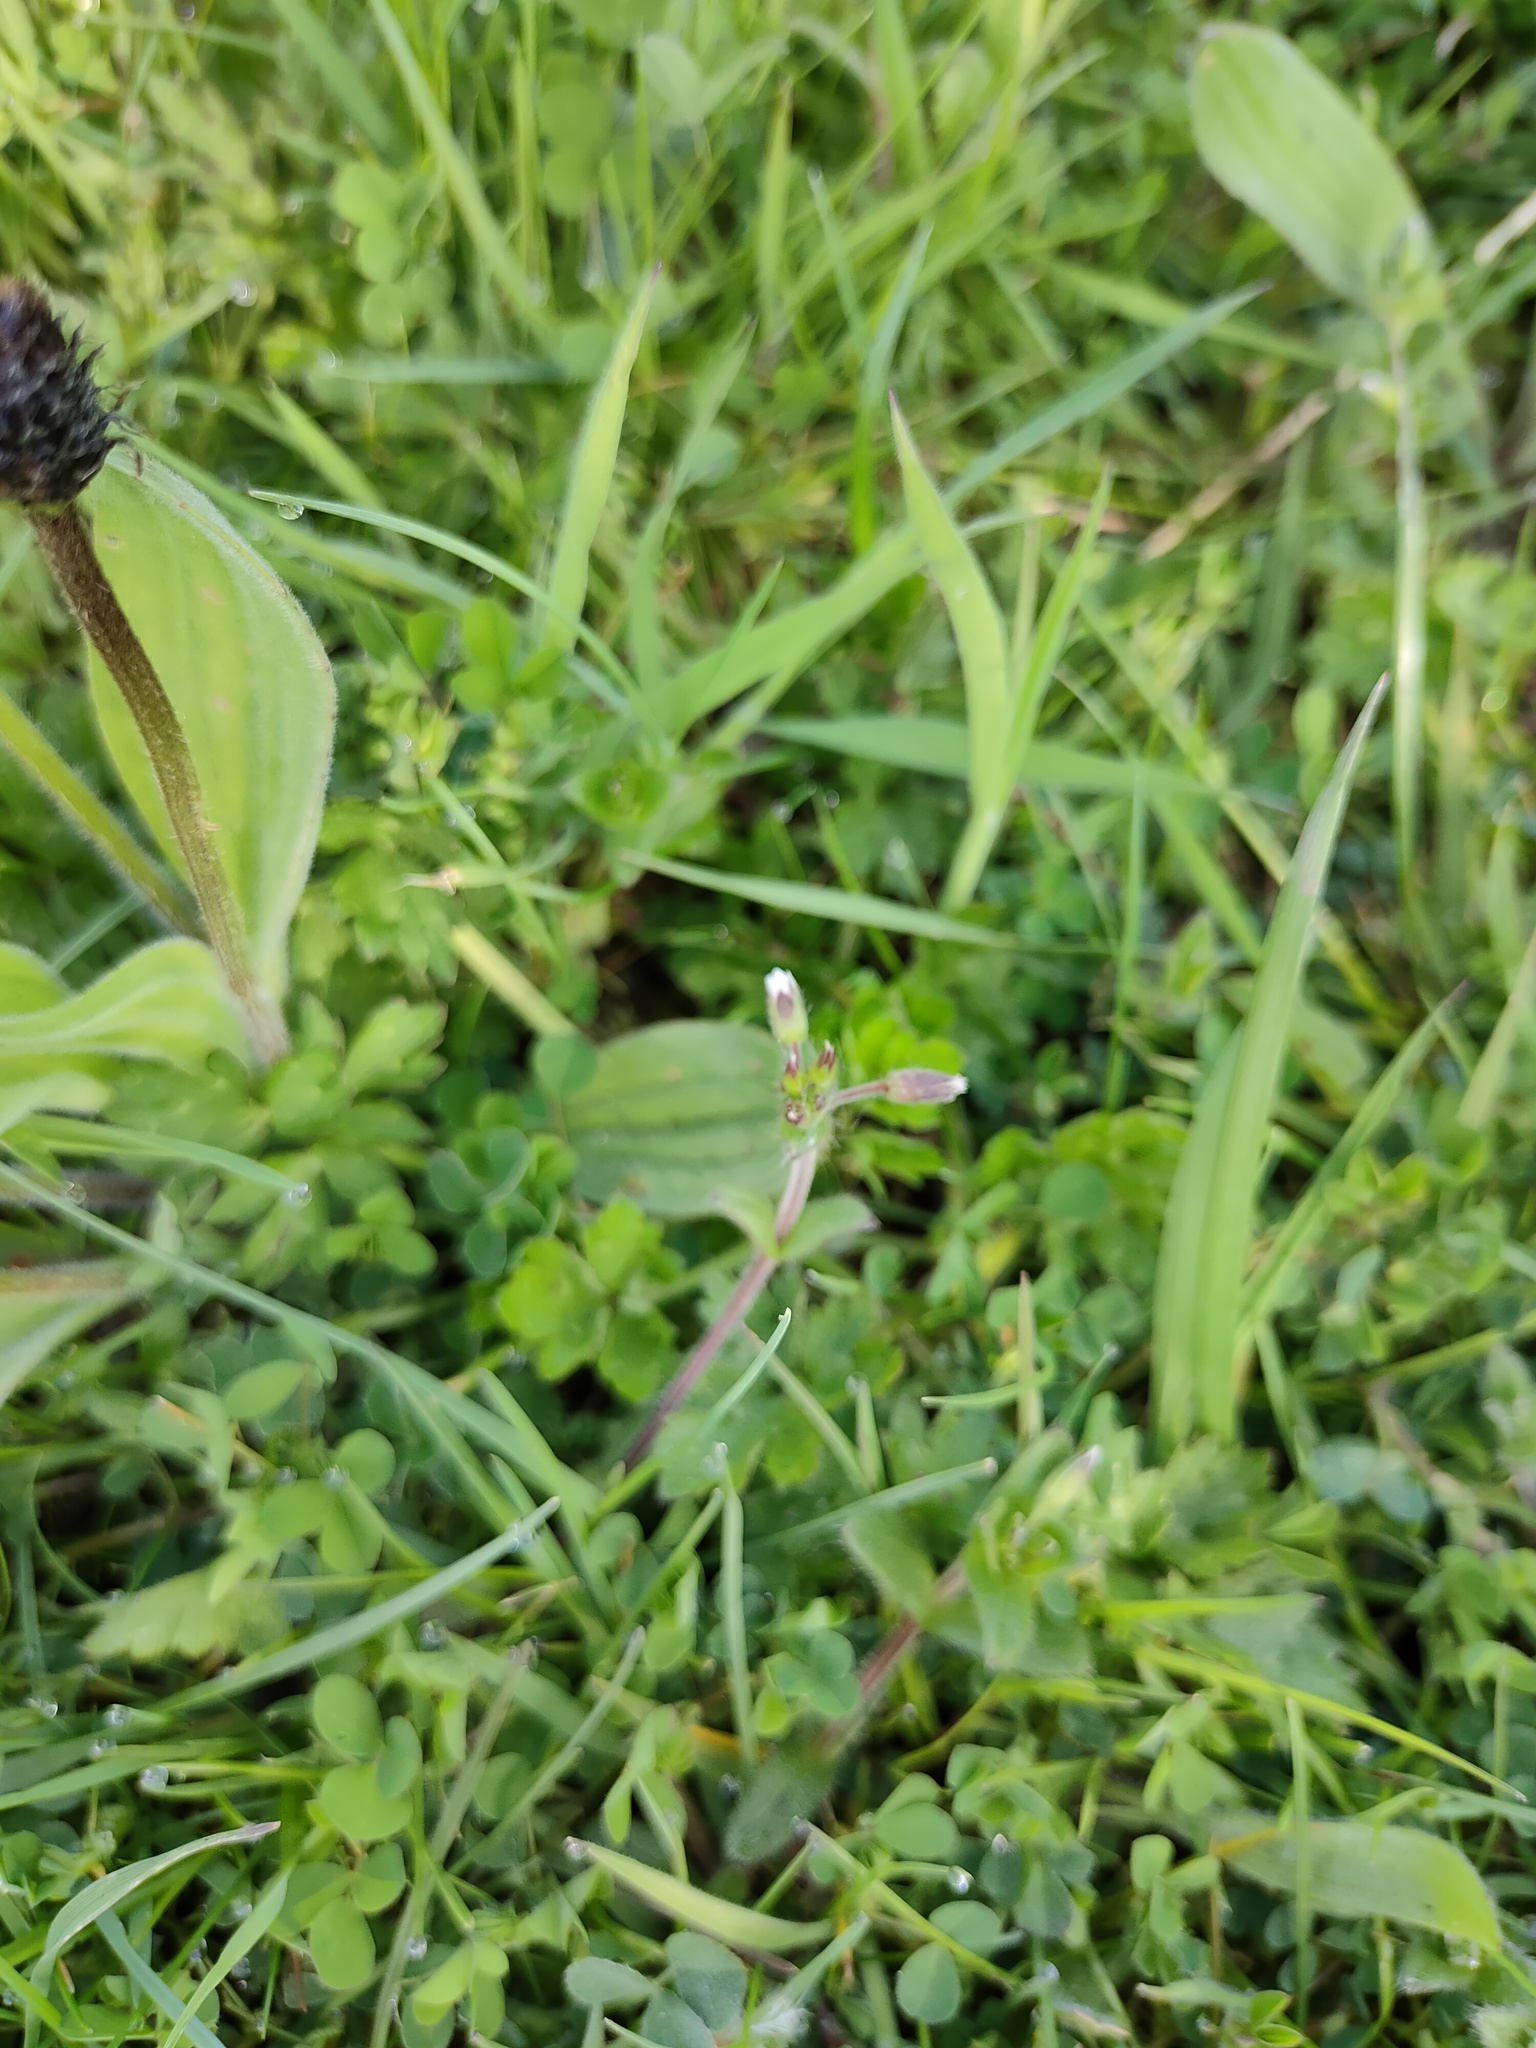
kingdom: Plantae
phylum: Tracheophyta
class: Magnoliopsida
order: Caryophyllales
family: Caryophyllaceae
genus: Cerastium
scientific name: Cerastium fontanum
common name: Common mouse-ear
